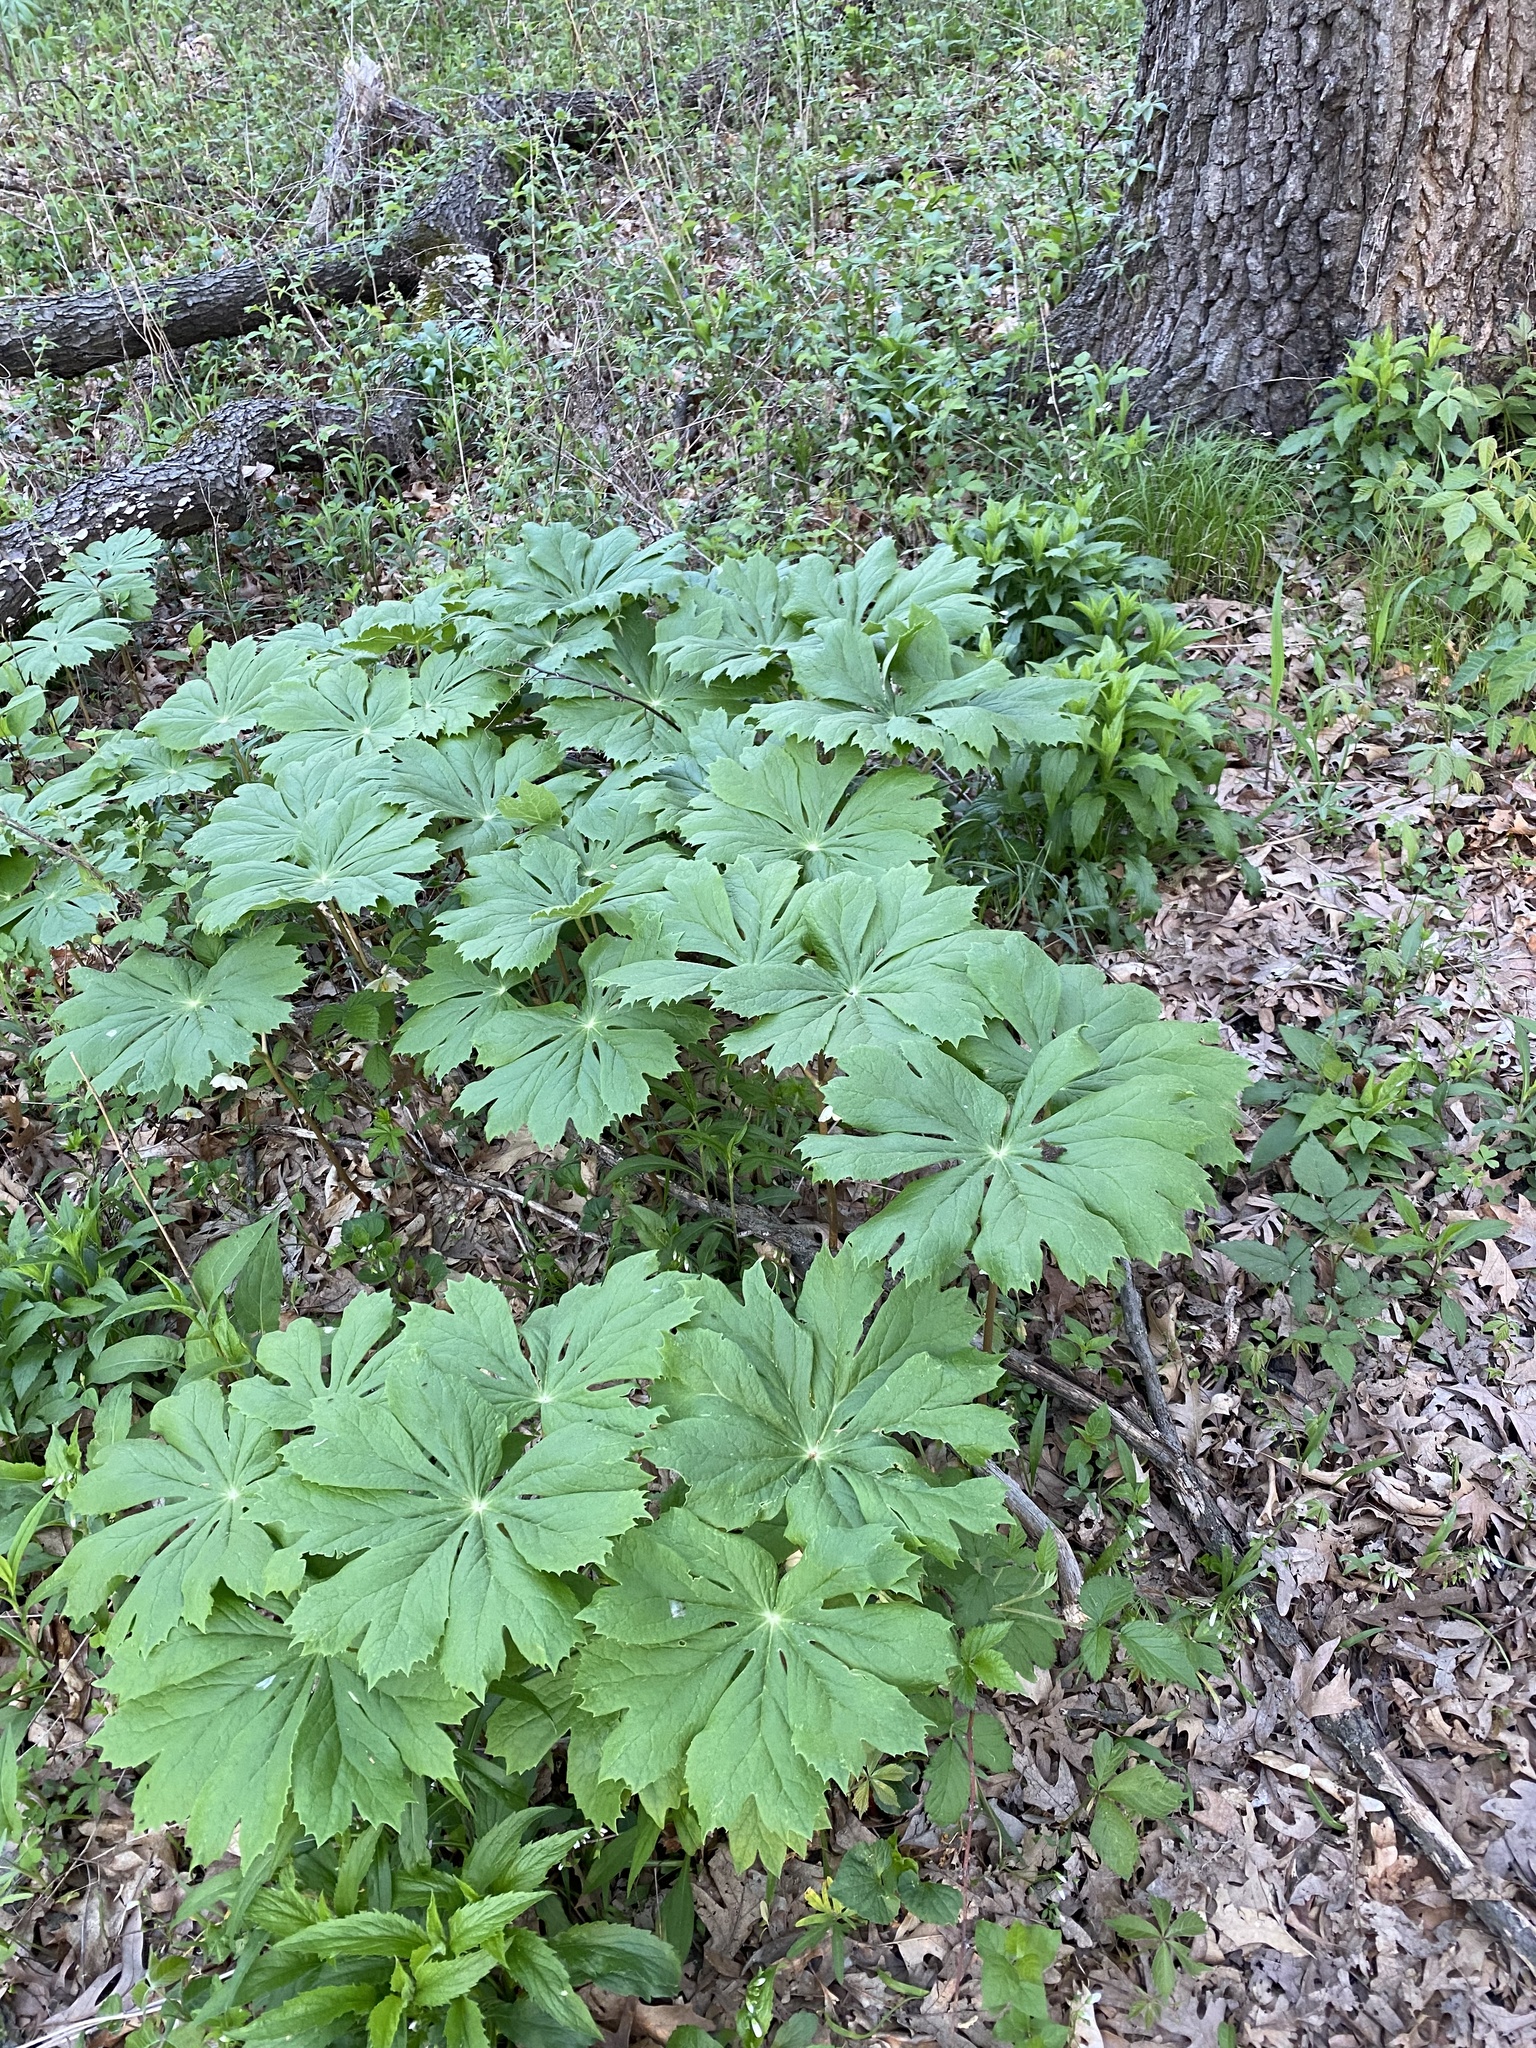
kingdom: Plantae
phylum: Tracheophyta
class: Magnoliopsida
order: Ranunculales
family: Berberidaceae
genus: Podophyllum
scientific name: Podophyllum peltatum
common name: Wild mandrake
